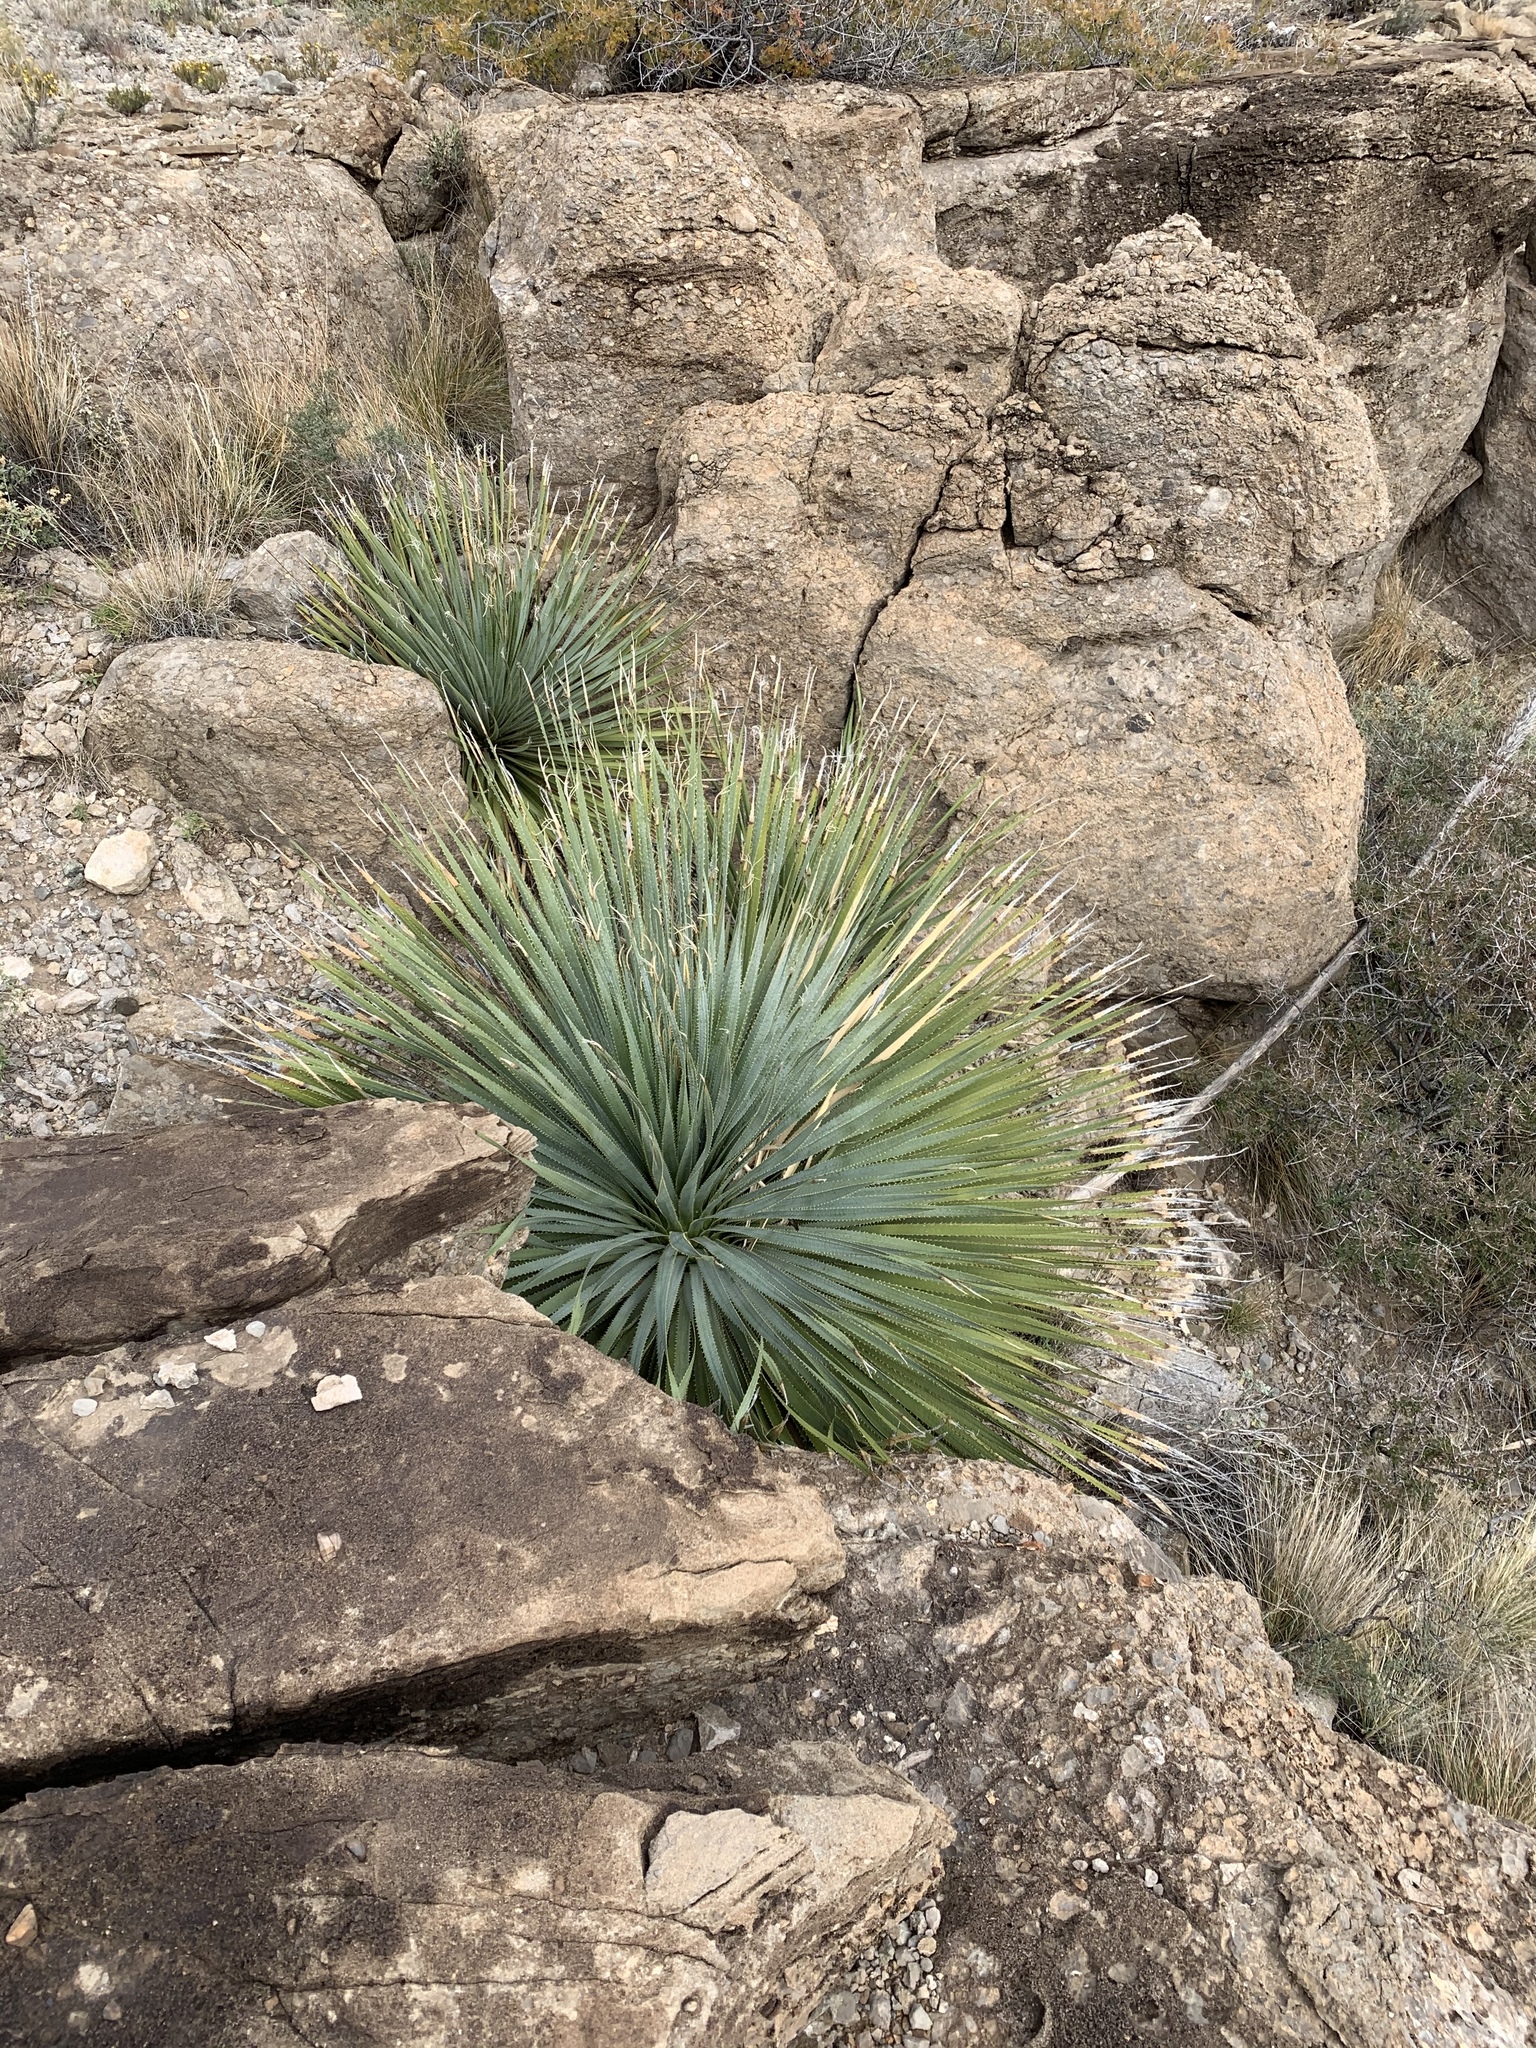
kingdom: Plantae
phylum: Tracheophyta
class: Liliopsida
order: Asparagales
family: Asparagaceae
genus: Dasylirion
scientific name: Dasylirion wheeleri
